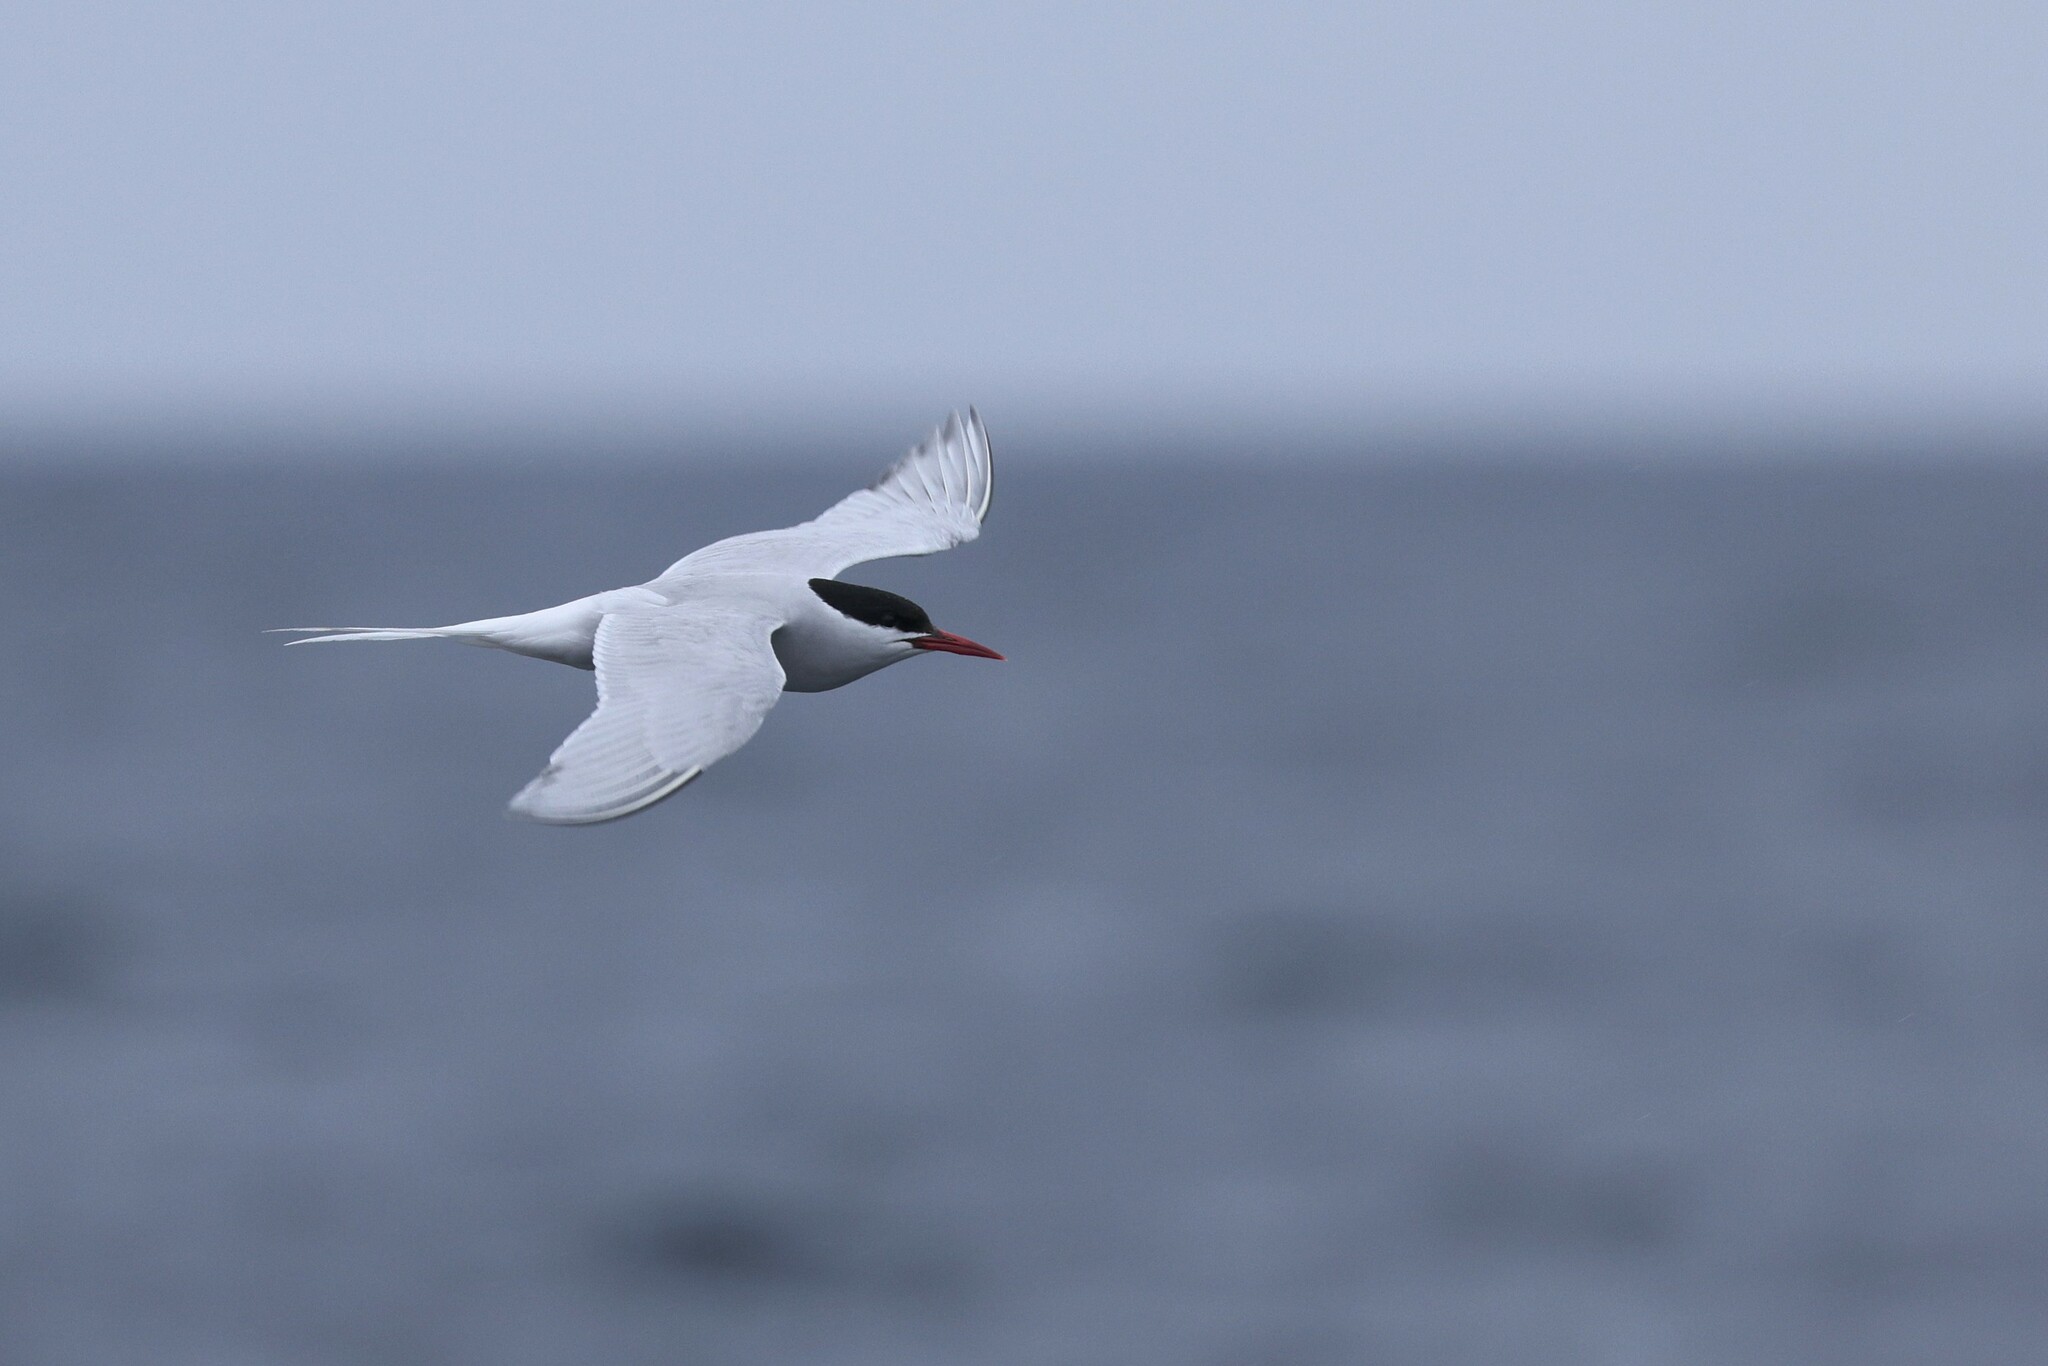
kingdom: Animalia
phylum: Chordata
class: Aves
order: Charadriiformes
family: Laridae
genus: Sterna
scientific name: Sterna hirundinacea
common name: South american tern
